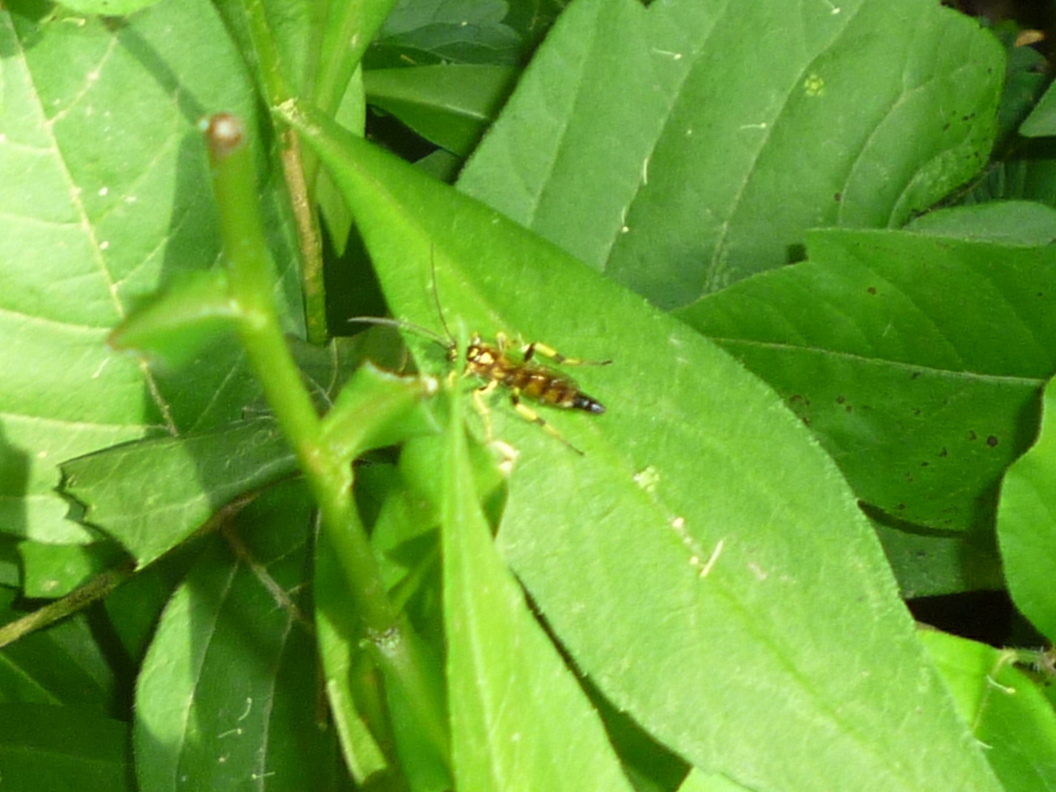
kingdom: Animalia
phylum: Arthropoda
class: Insecta
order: Hymenoptera
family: Ichneumonidae
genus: Ichneumon
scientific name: Ichneumon annulatorius
